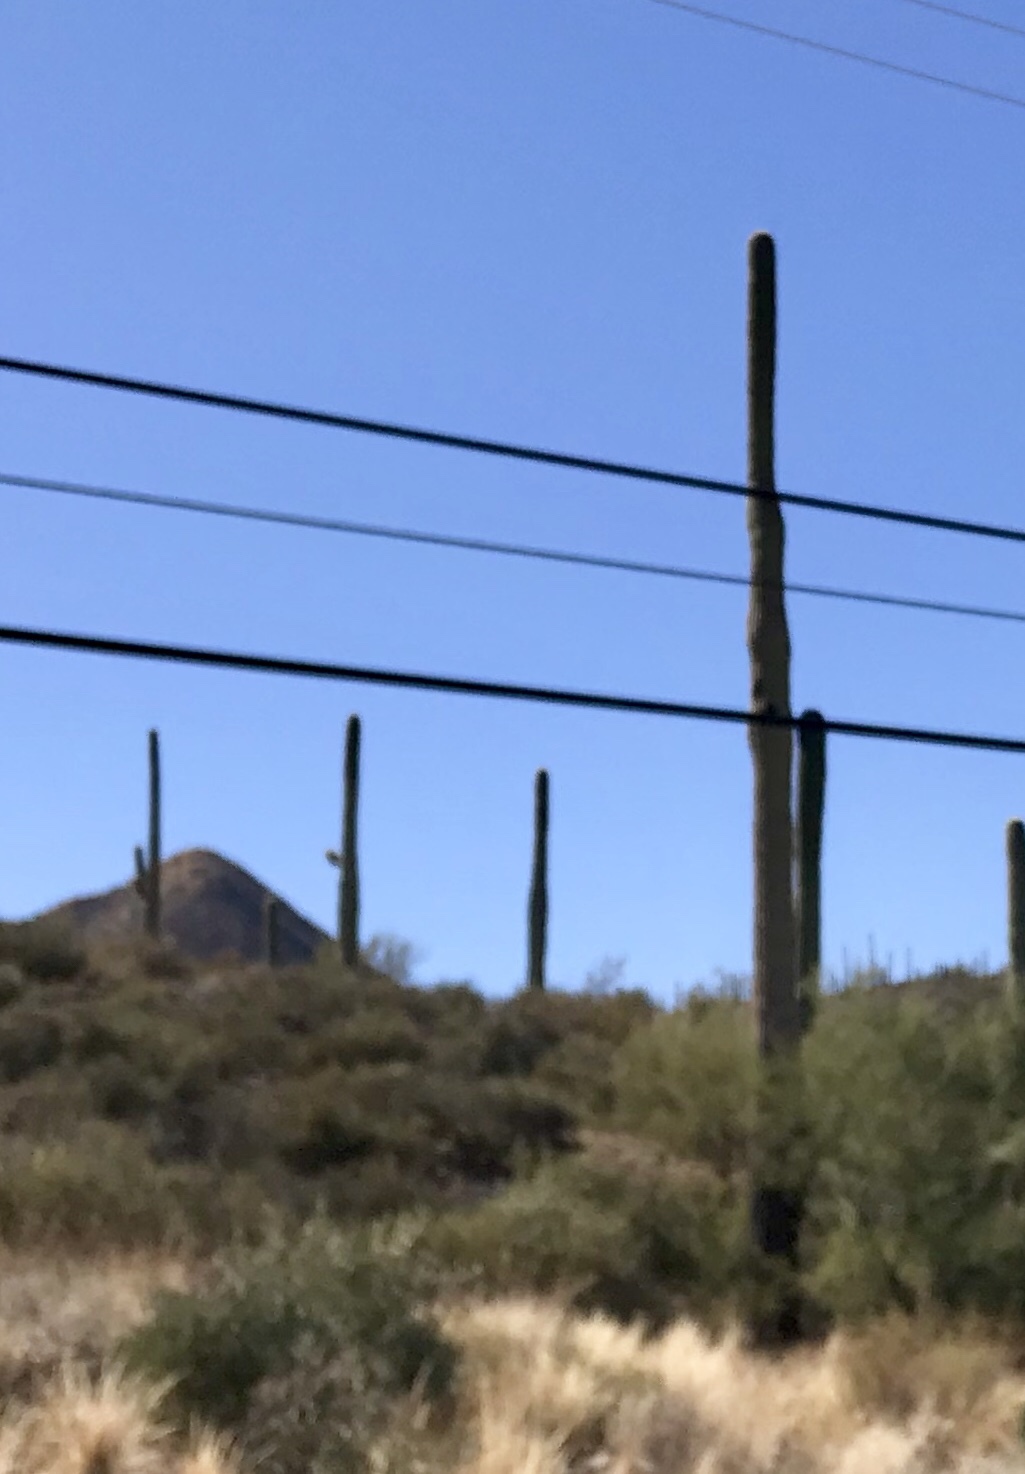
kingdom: Plantae
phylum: Tracheophyta
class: Magnoliopsida
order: Caryophyllales
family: Cactaceae
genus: Carnegiea
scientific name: Carnegiea gigantea
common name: Saguaro
